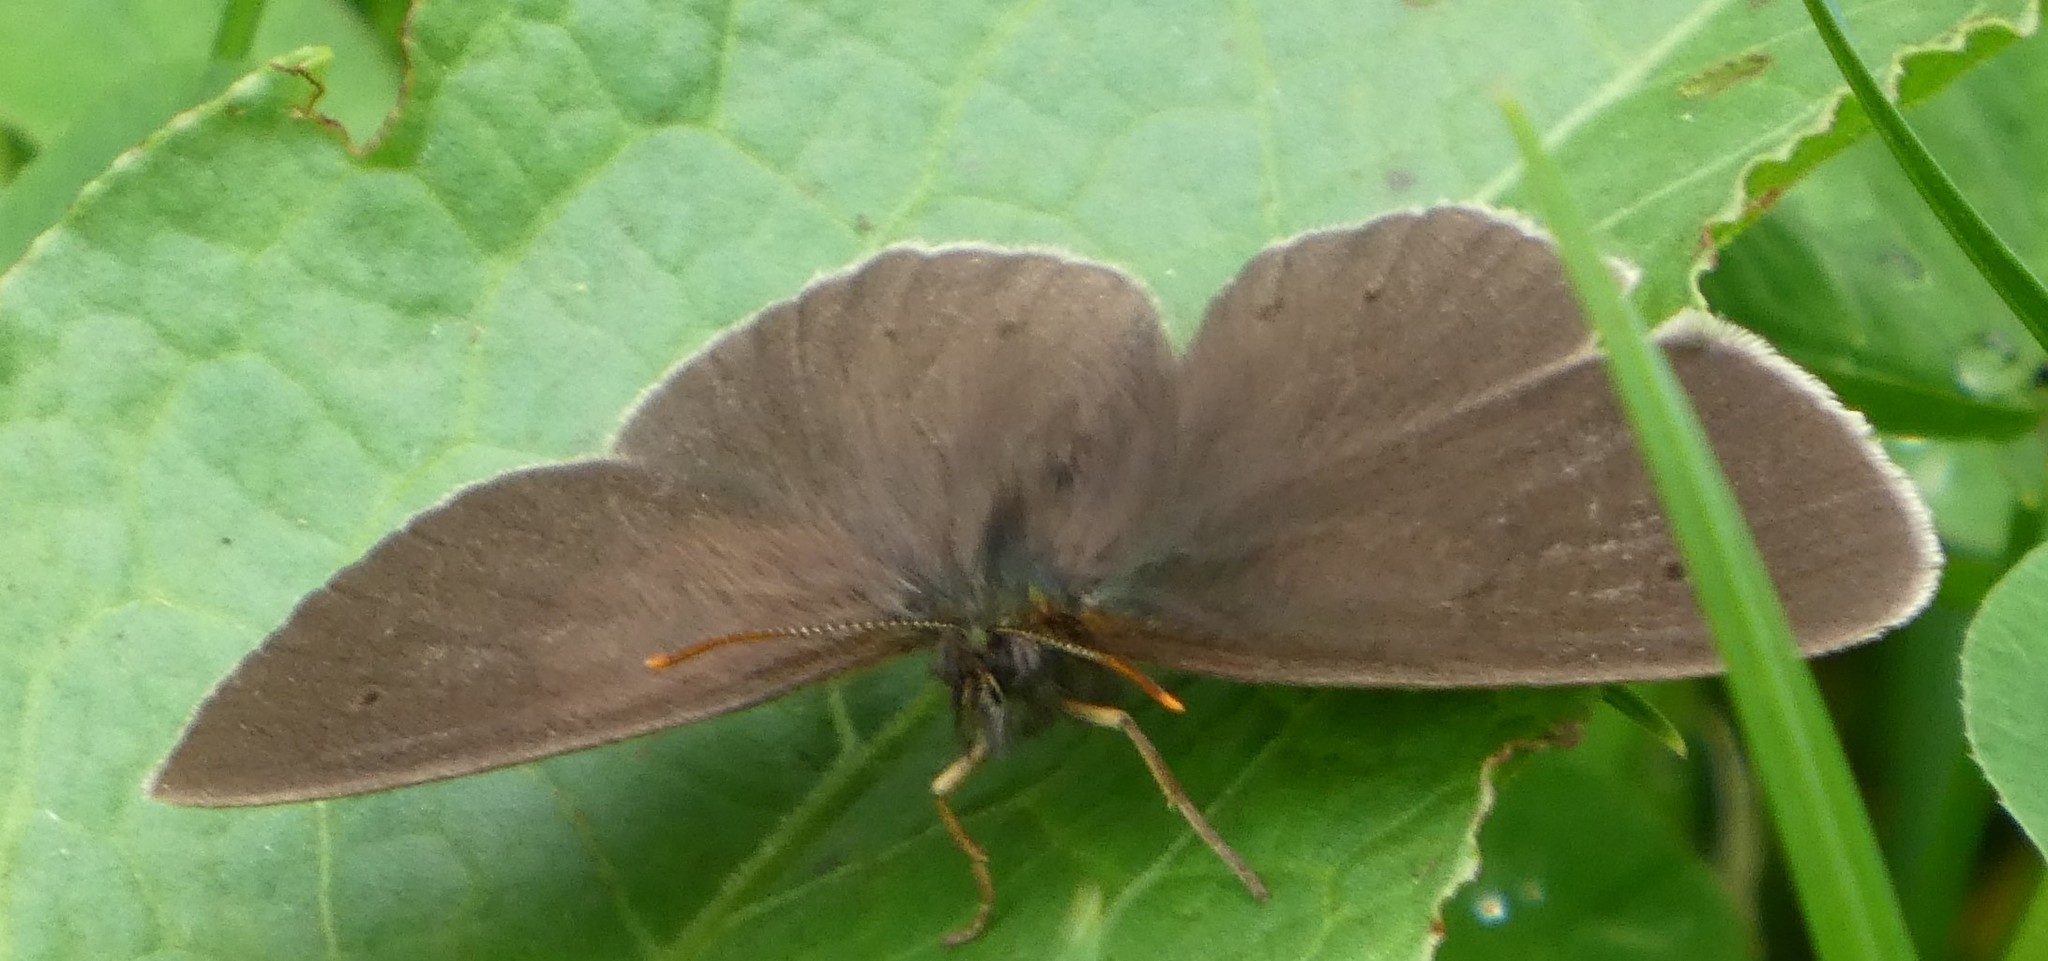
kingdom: Animalia
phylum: Arthropoda
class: Insecta
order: Lepidoptera
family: Nymphalidae
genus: Aphantopus
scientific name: Aphantopus hyperantus
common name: Ringlet
